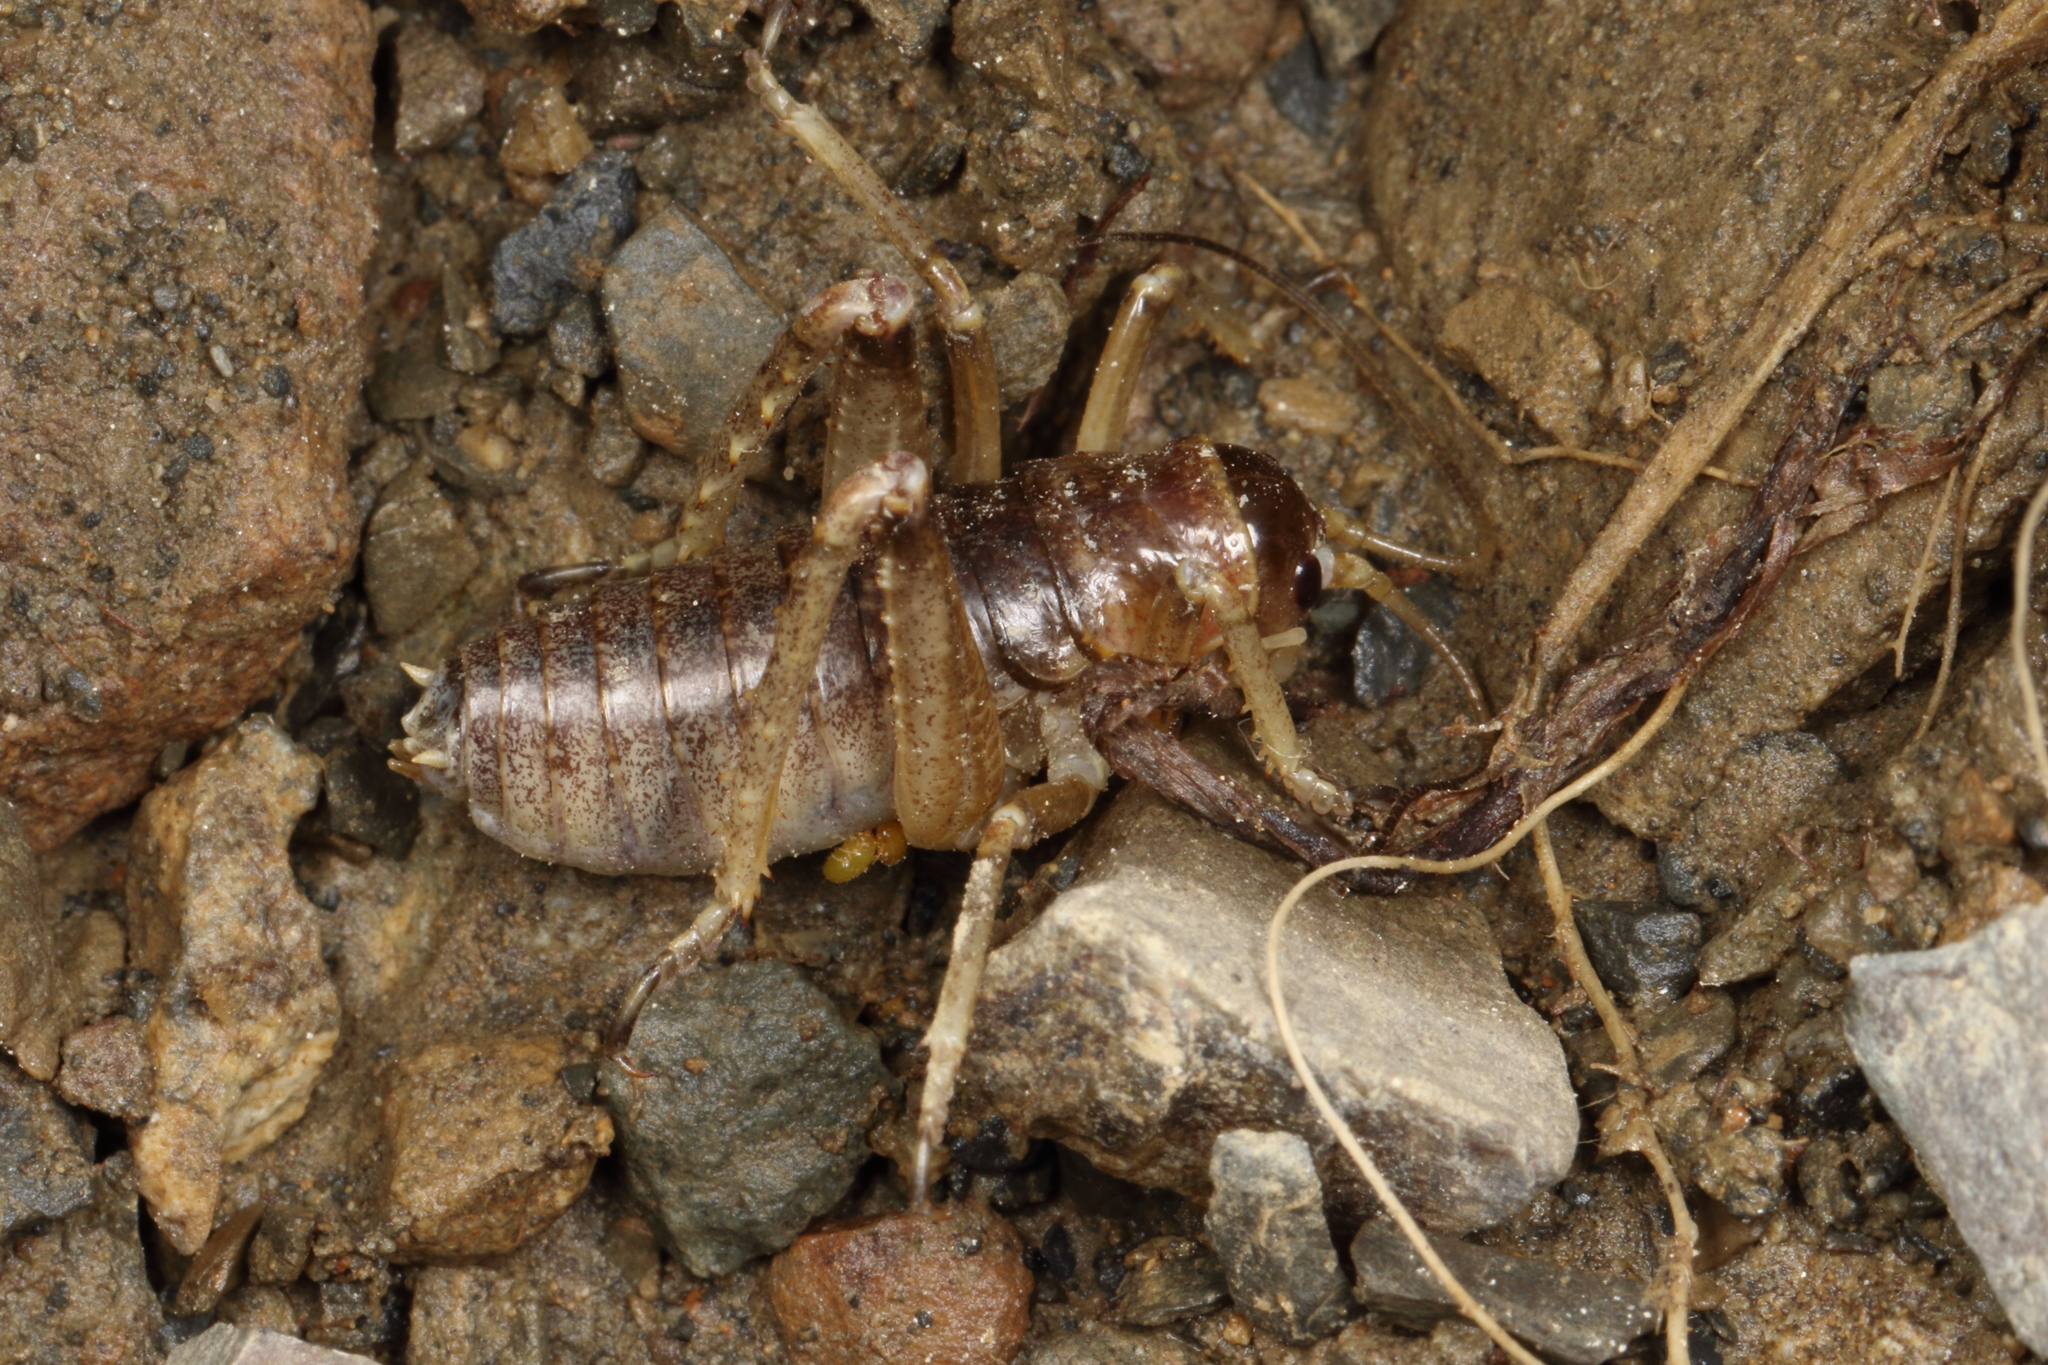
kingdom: Animalia
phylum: Arthropoda
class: Insecta
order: Orthoptera
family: Anostostomatidae
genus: Deinacrida
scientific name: Deinacrida connectens
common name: Scree weta
